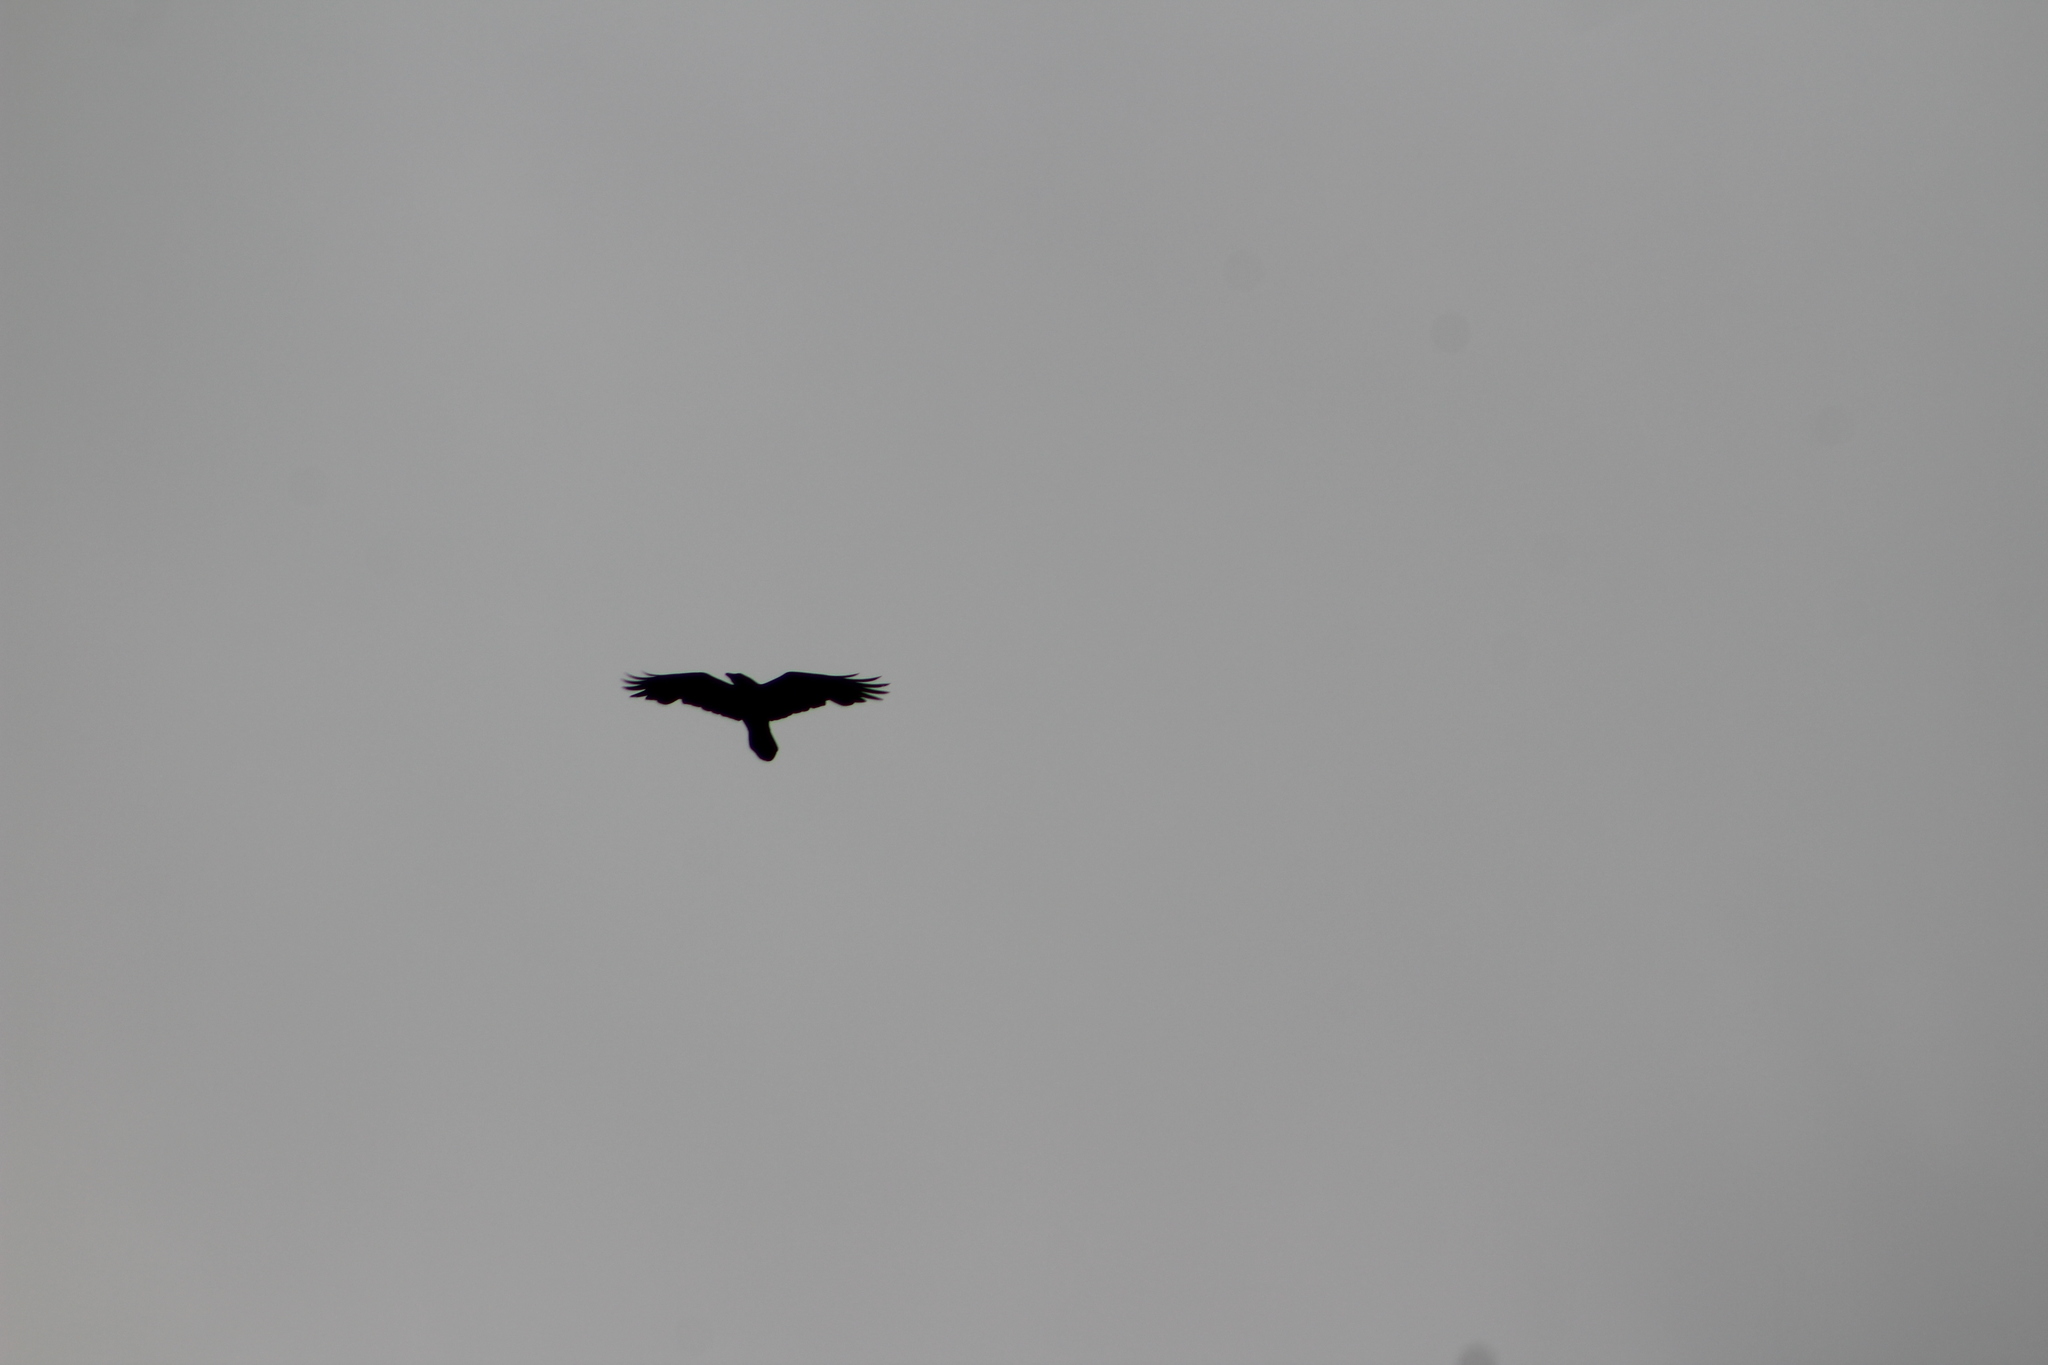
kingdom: Animalia
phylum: Chordata
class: Aves
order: Passeriformes
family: Corvidae
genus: Corvus
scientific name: Corvus corax
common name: Common raven
